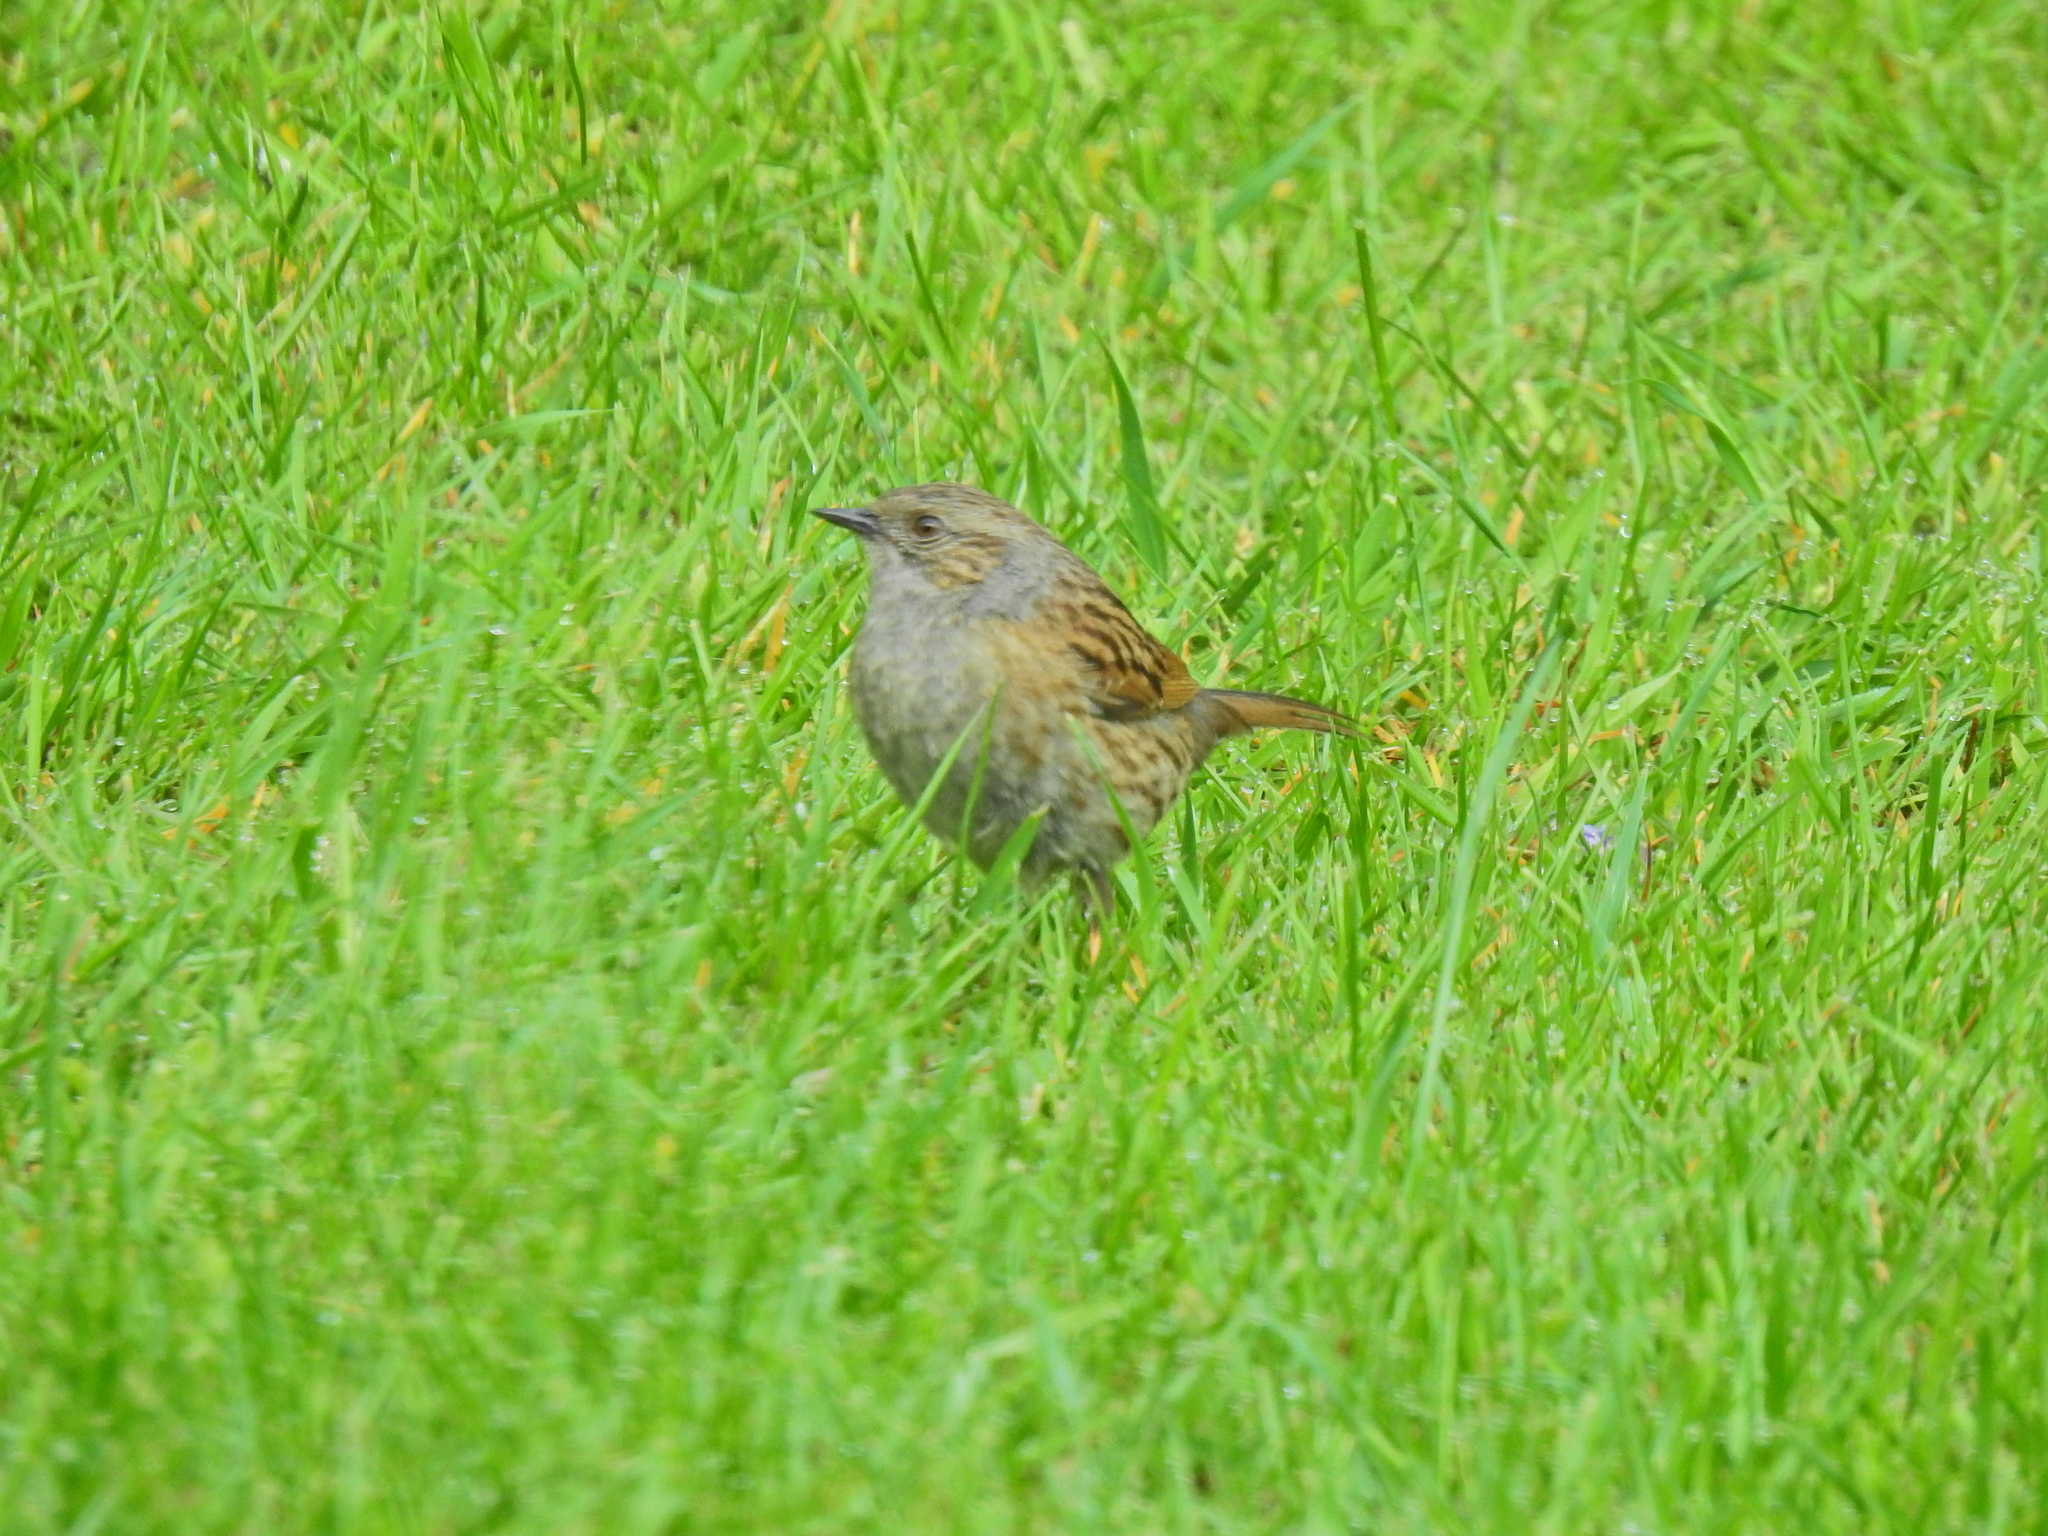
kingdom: Animalia
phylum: Chordata
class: Aves
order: Passeriformes
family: Prunellidae
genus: Prunella
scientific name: Prunella modularis
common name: Dunnock
